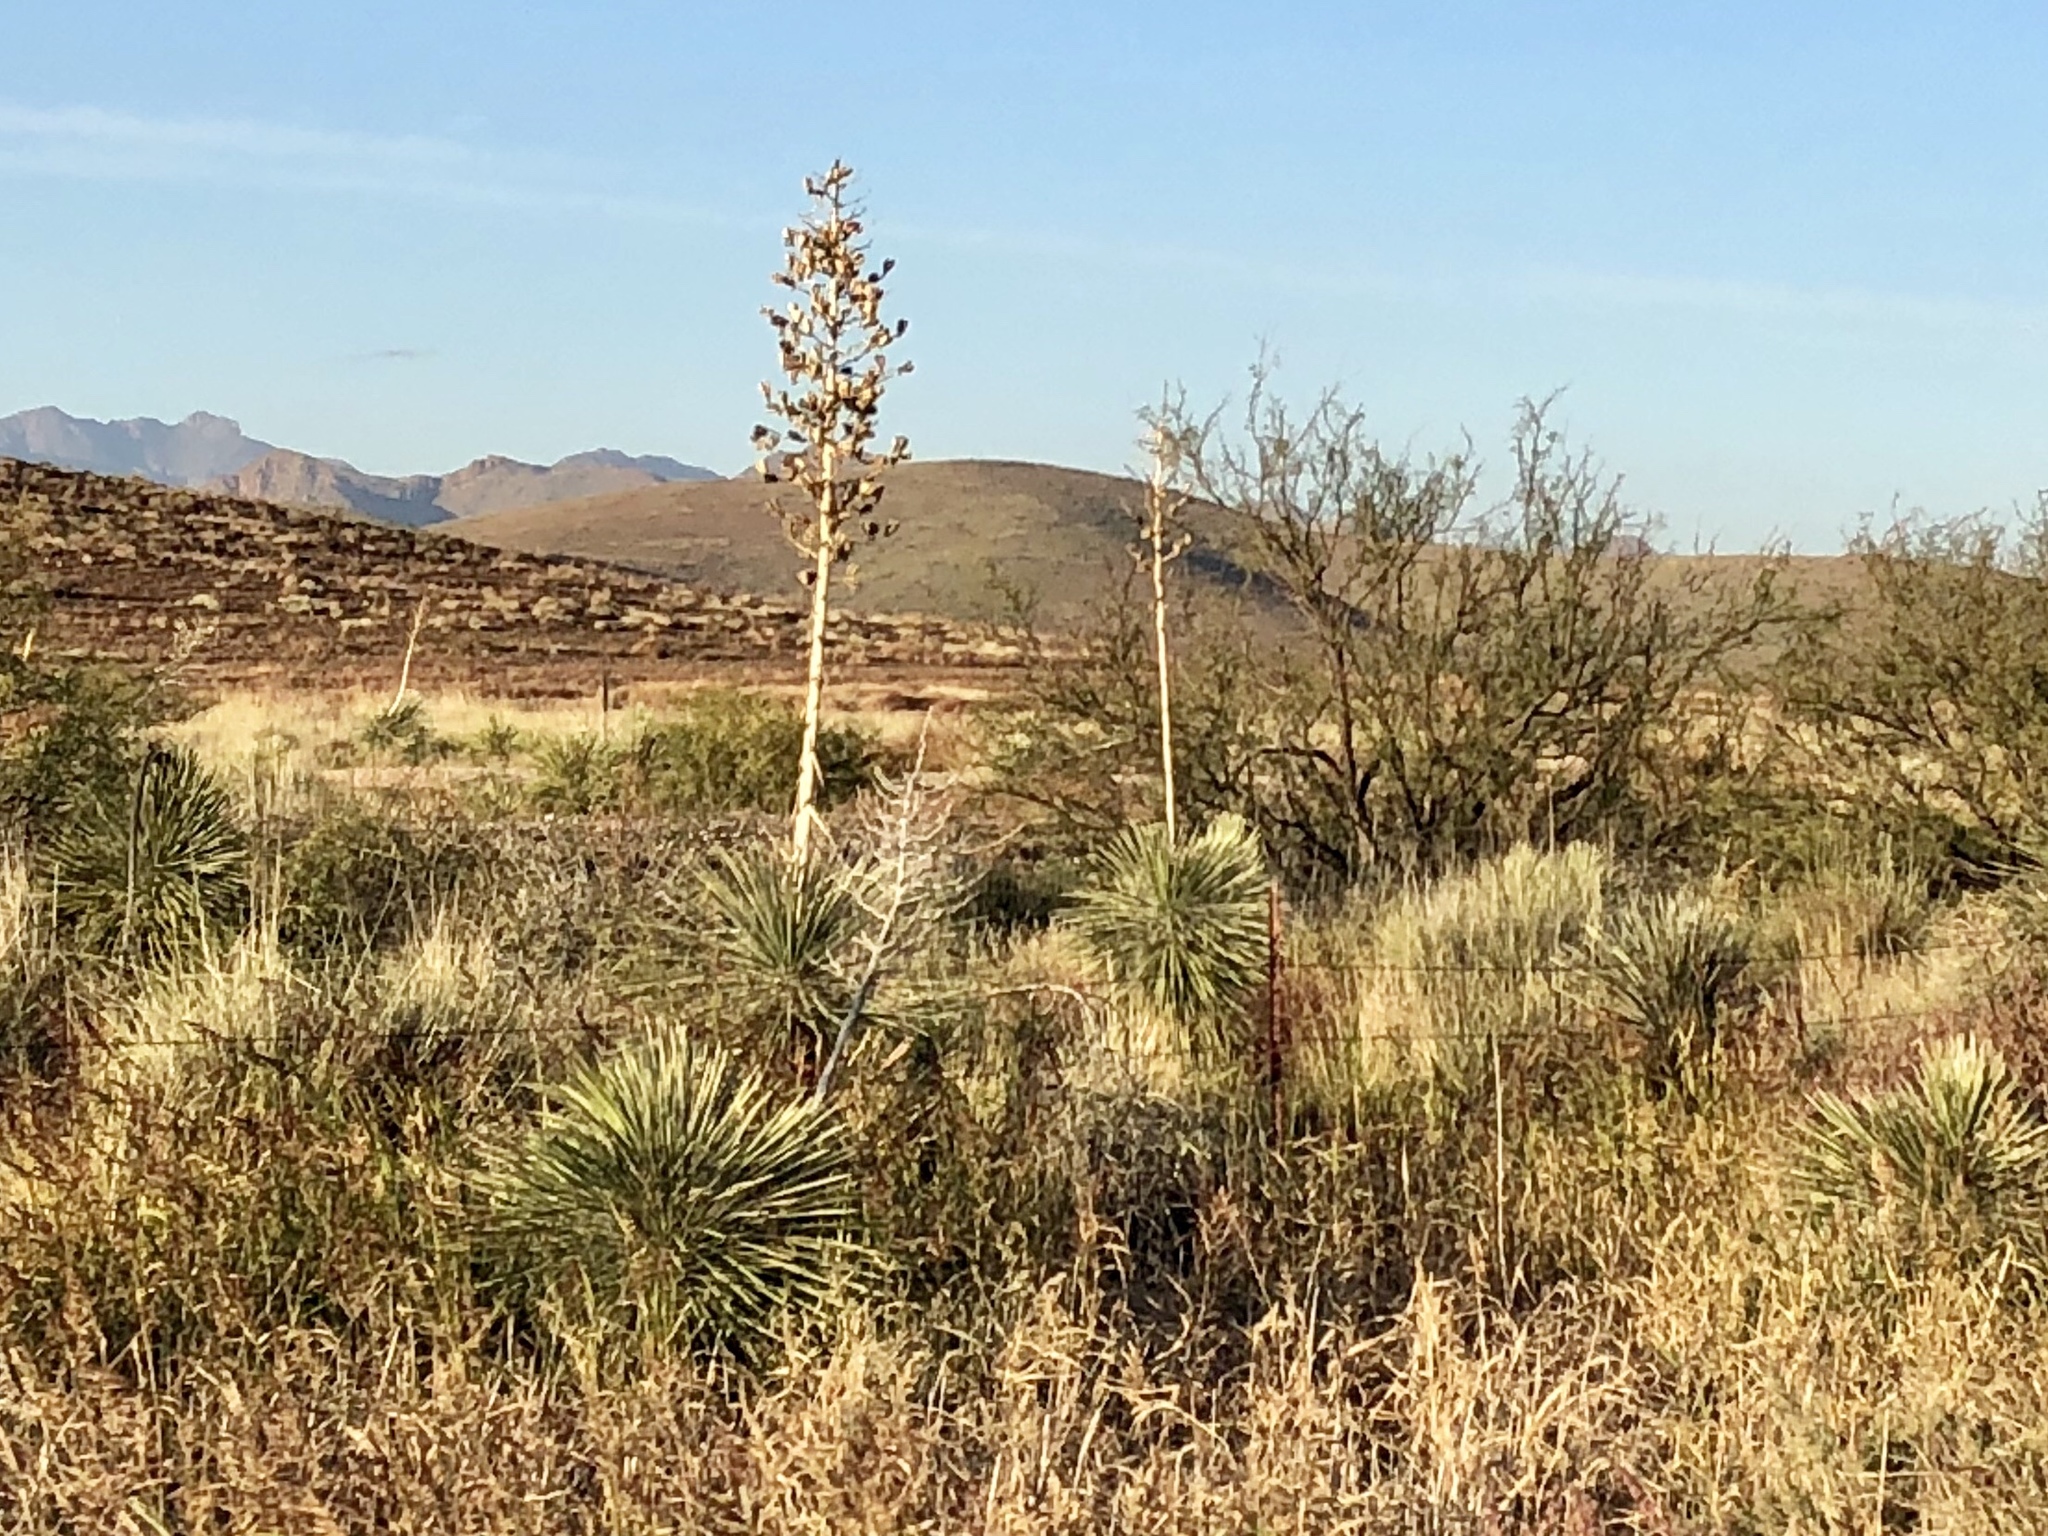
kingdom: Plantae
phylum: Tracheophyta
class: Liliopsida
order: Asparagales
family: Asparagaceae
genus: Yucca
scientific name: Yucca elata
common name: Palmella
